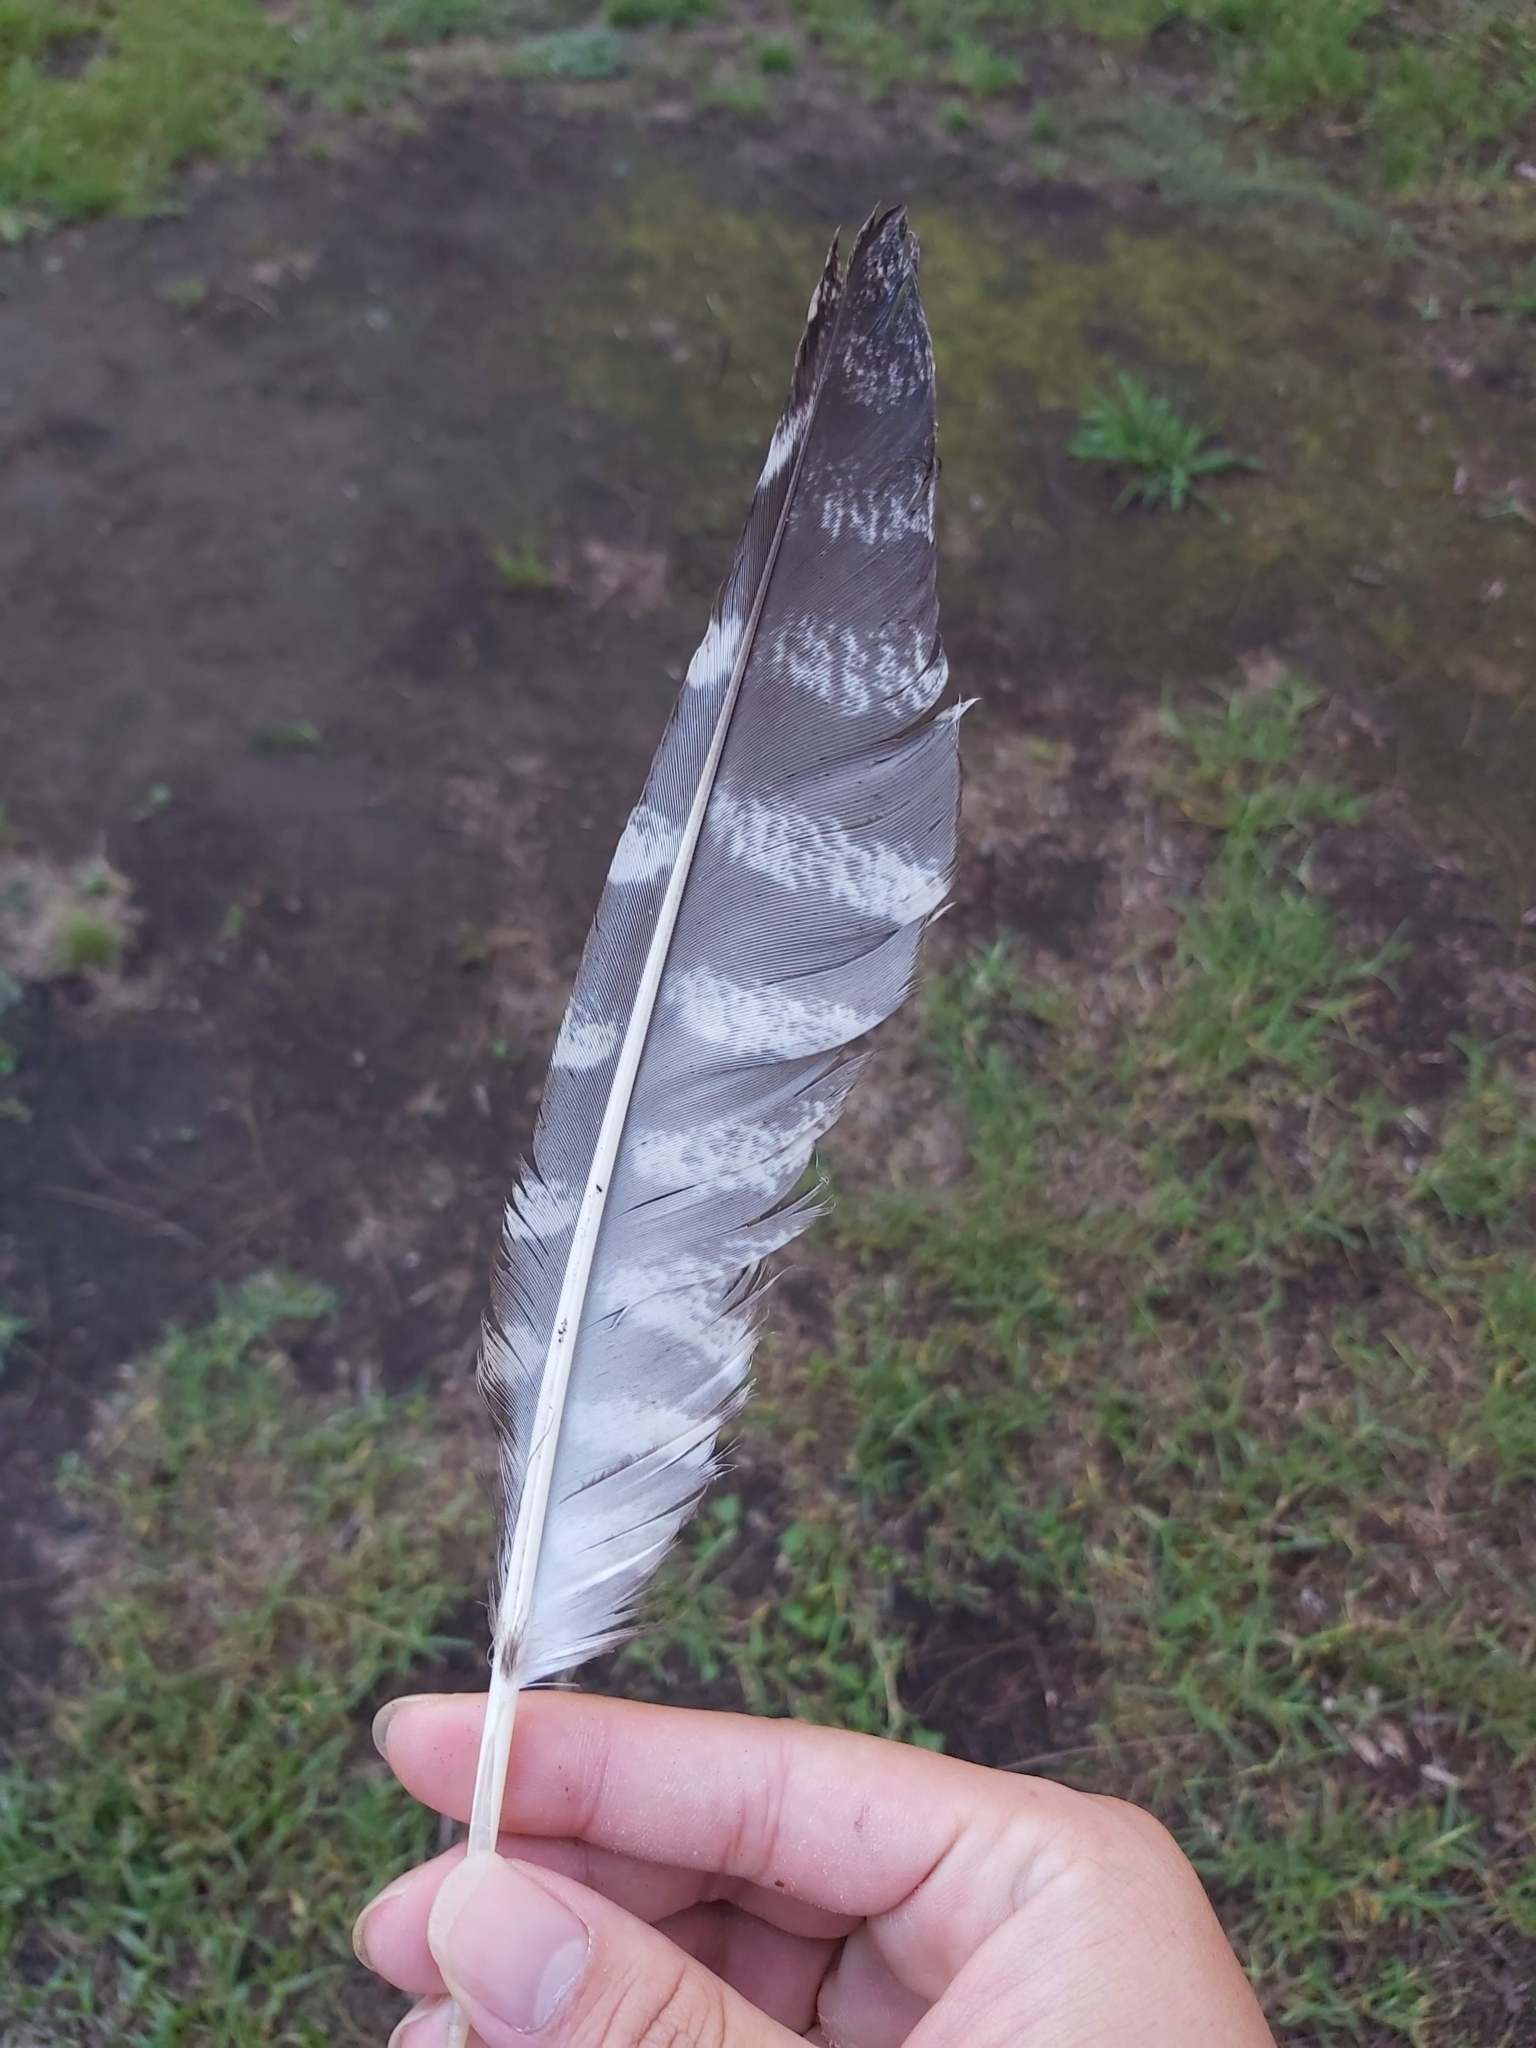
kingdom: Animalia
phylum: Chordata
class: Aves
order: Caprimulgiformes
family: Podargidae
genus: Podargus
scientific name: Podargus strigoides
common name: Tawny frogmouth
